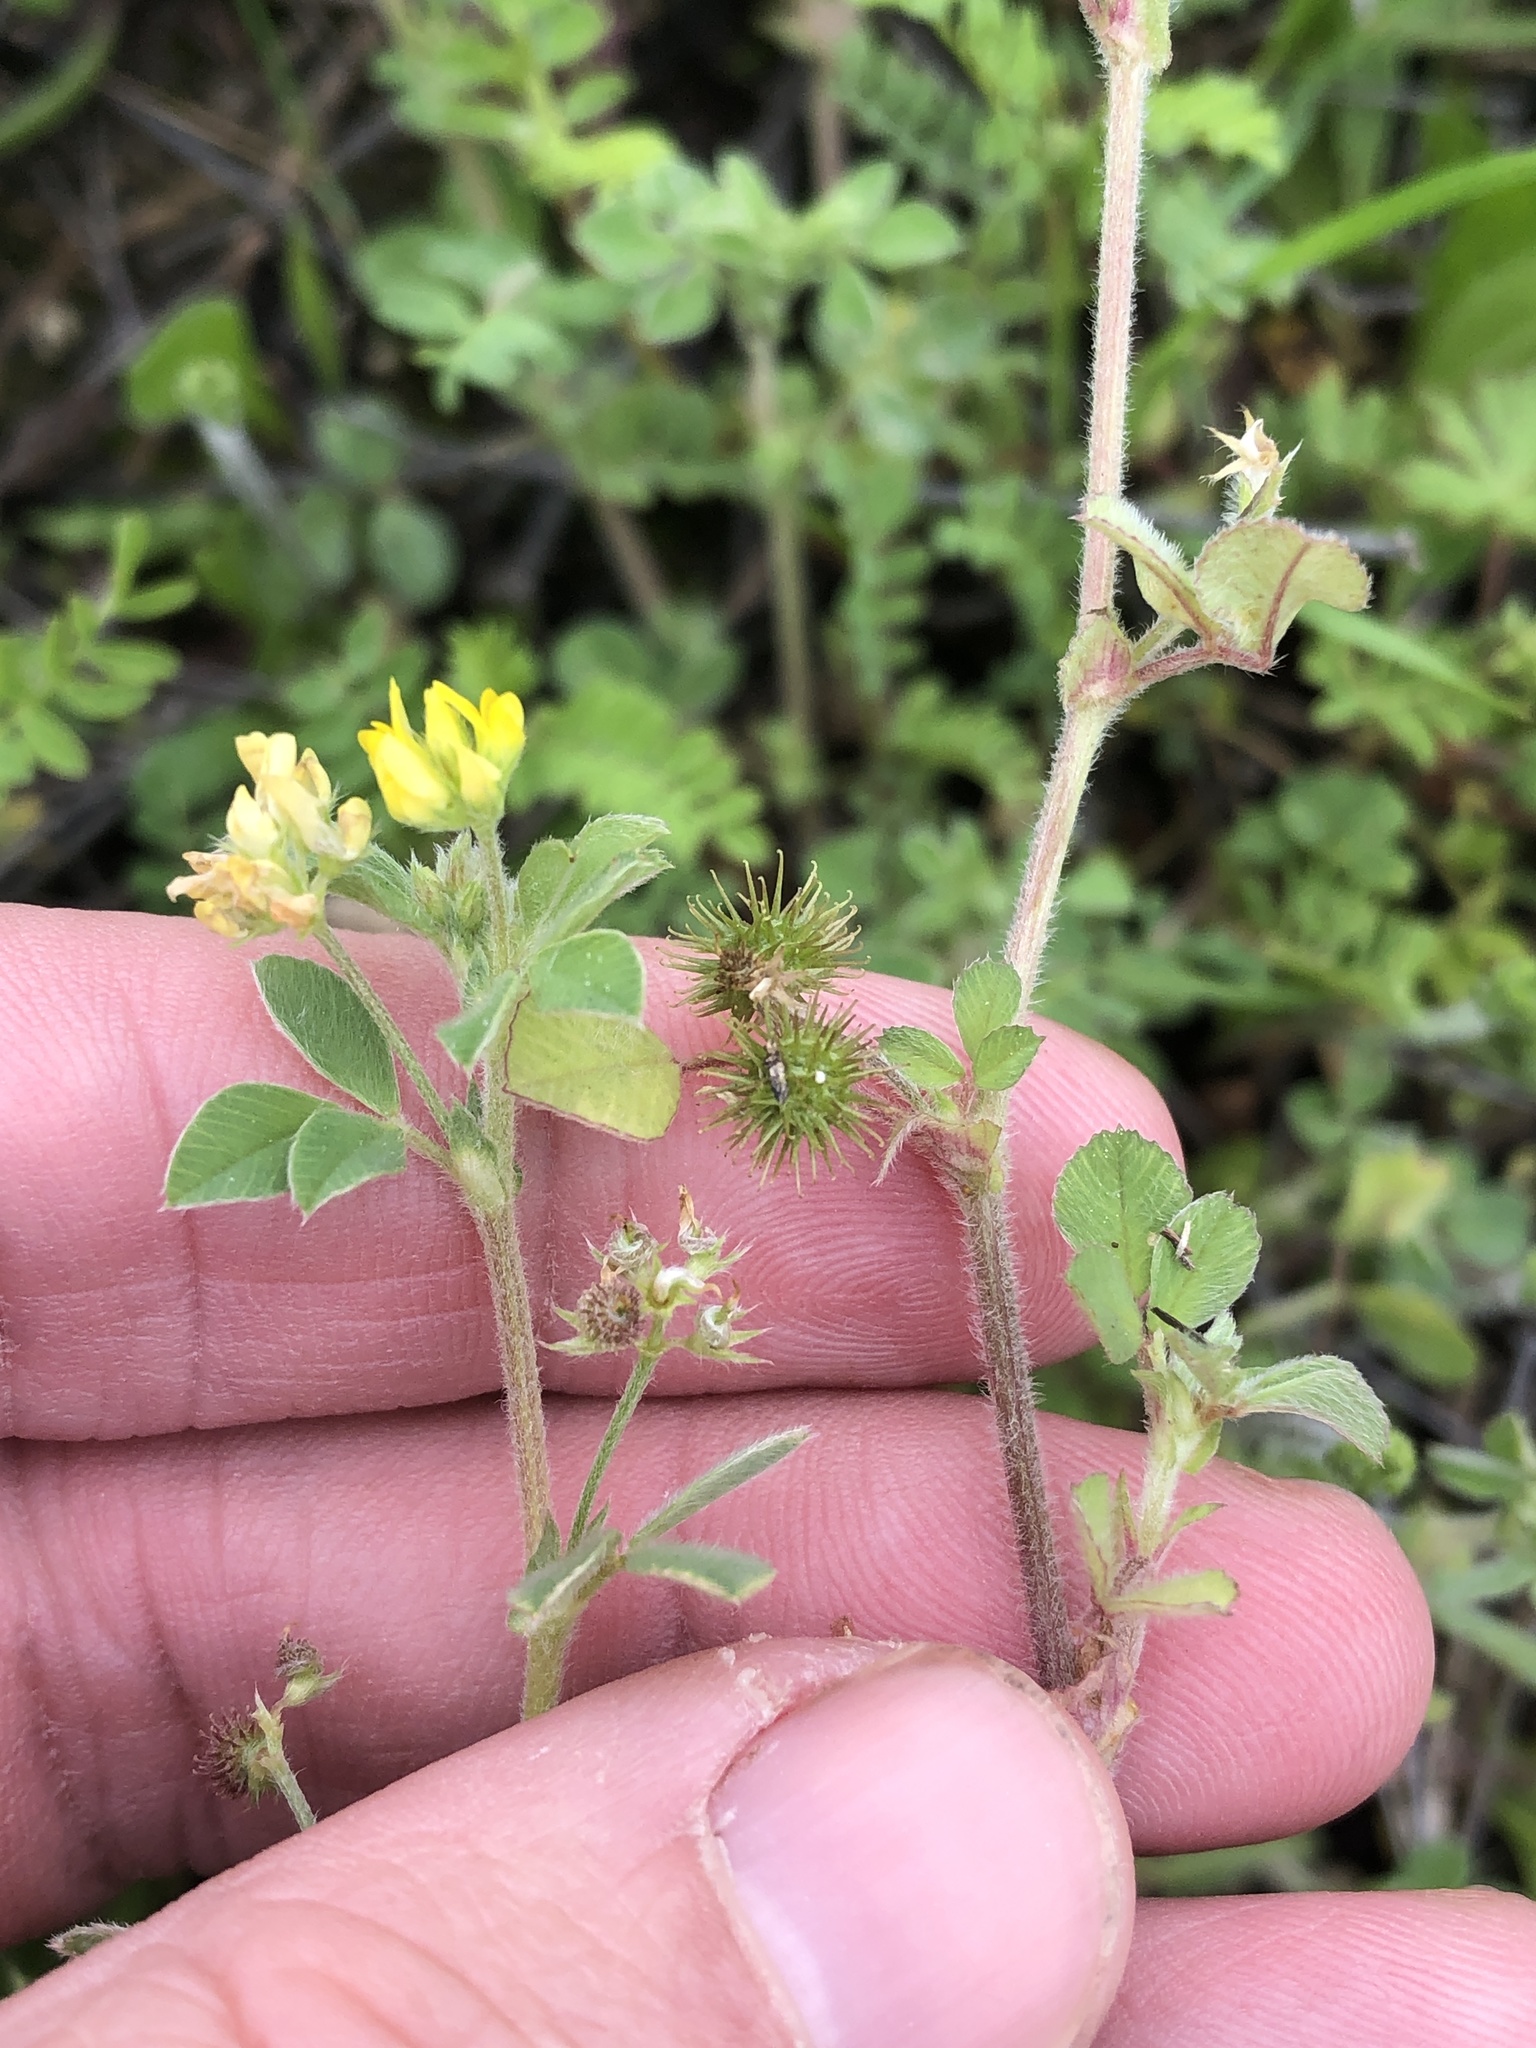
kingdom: Plantae
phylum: Tracheophyta
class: Magnoliopsida
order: Fabales
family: Fabaceae
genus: Medicago
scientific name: Medicago minima
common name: Little bur-clover
